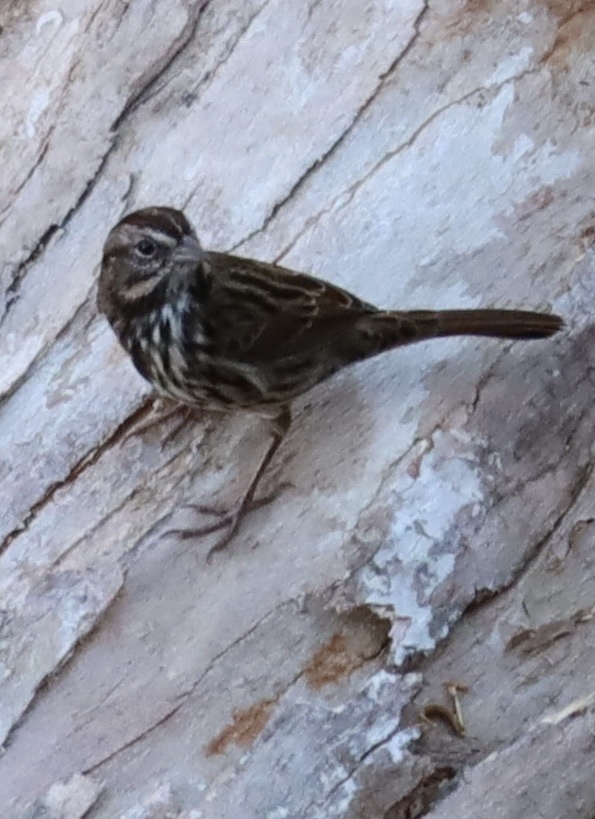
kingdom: Animalia
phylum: Chordata
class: Aves
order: Passeriformes
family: Passerellidae
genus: Melospiza
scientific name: Melospiza melodia
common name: Song sparrow
